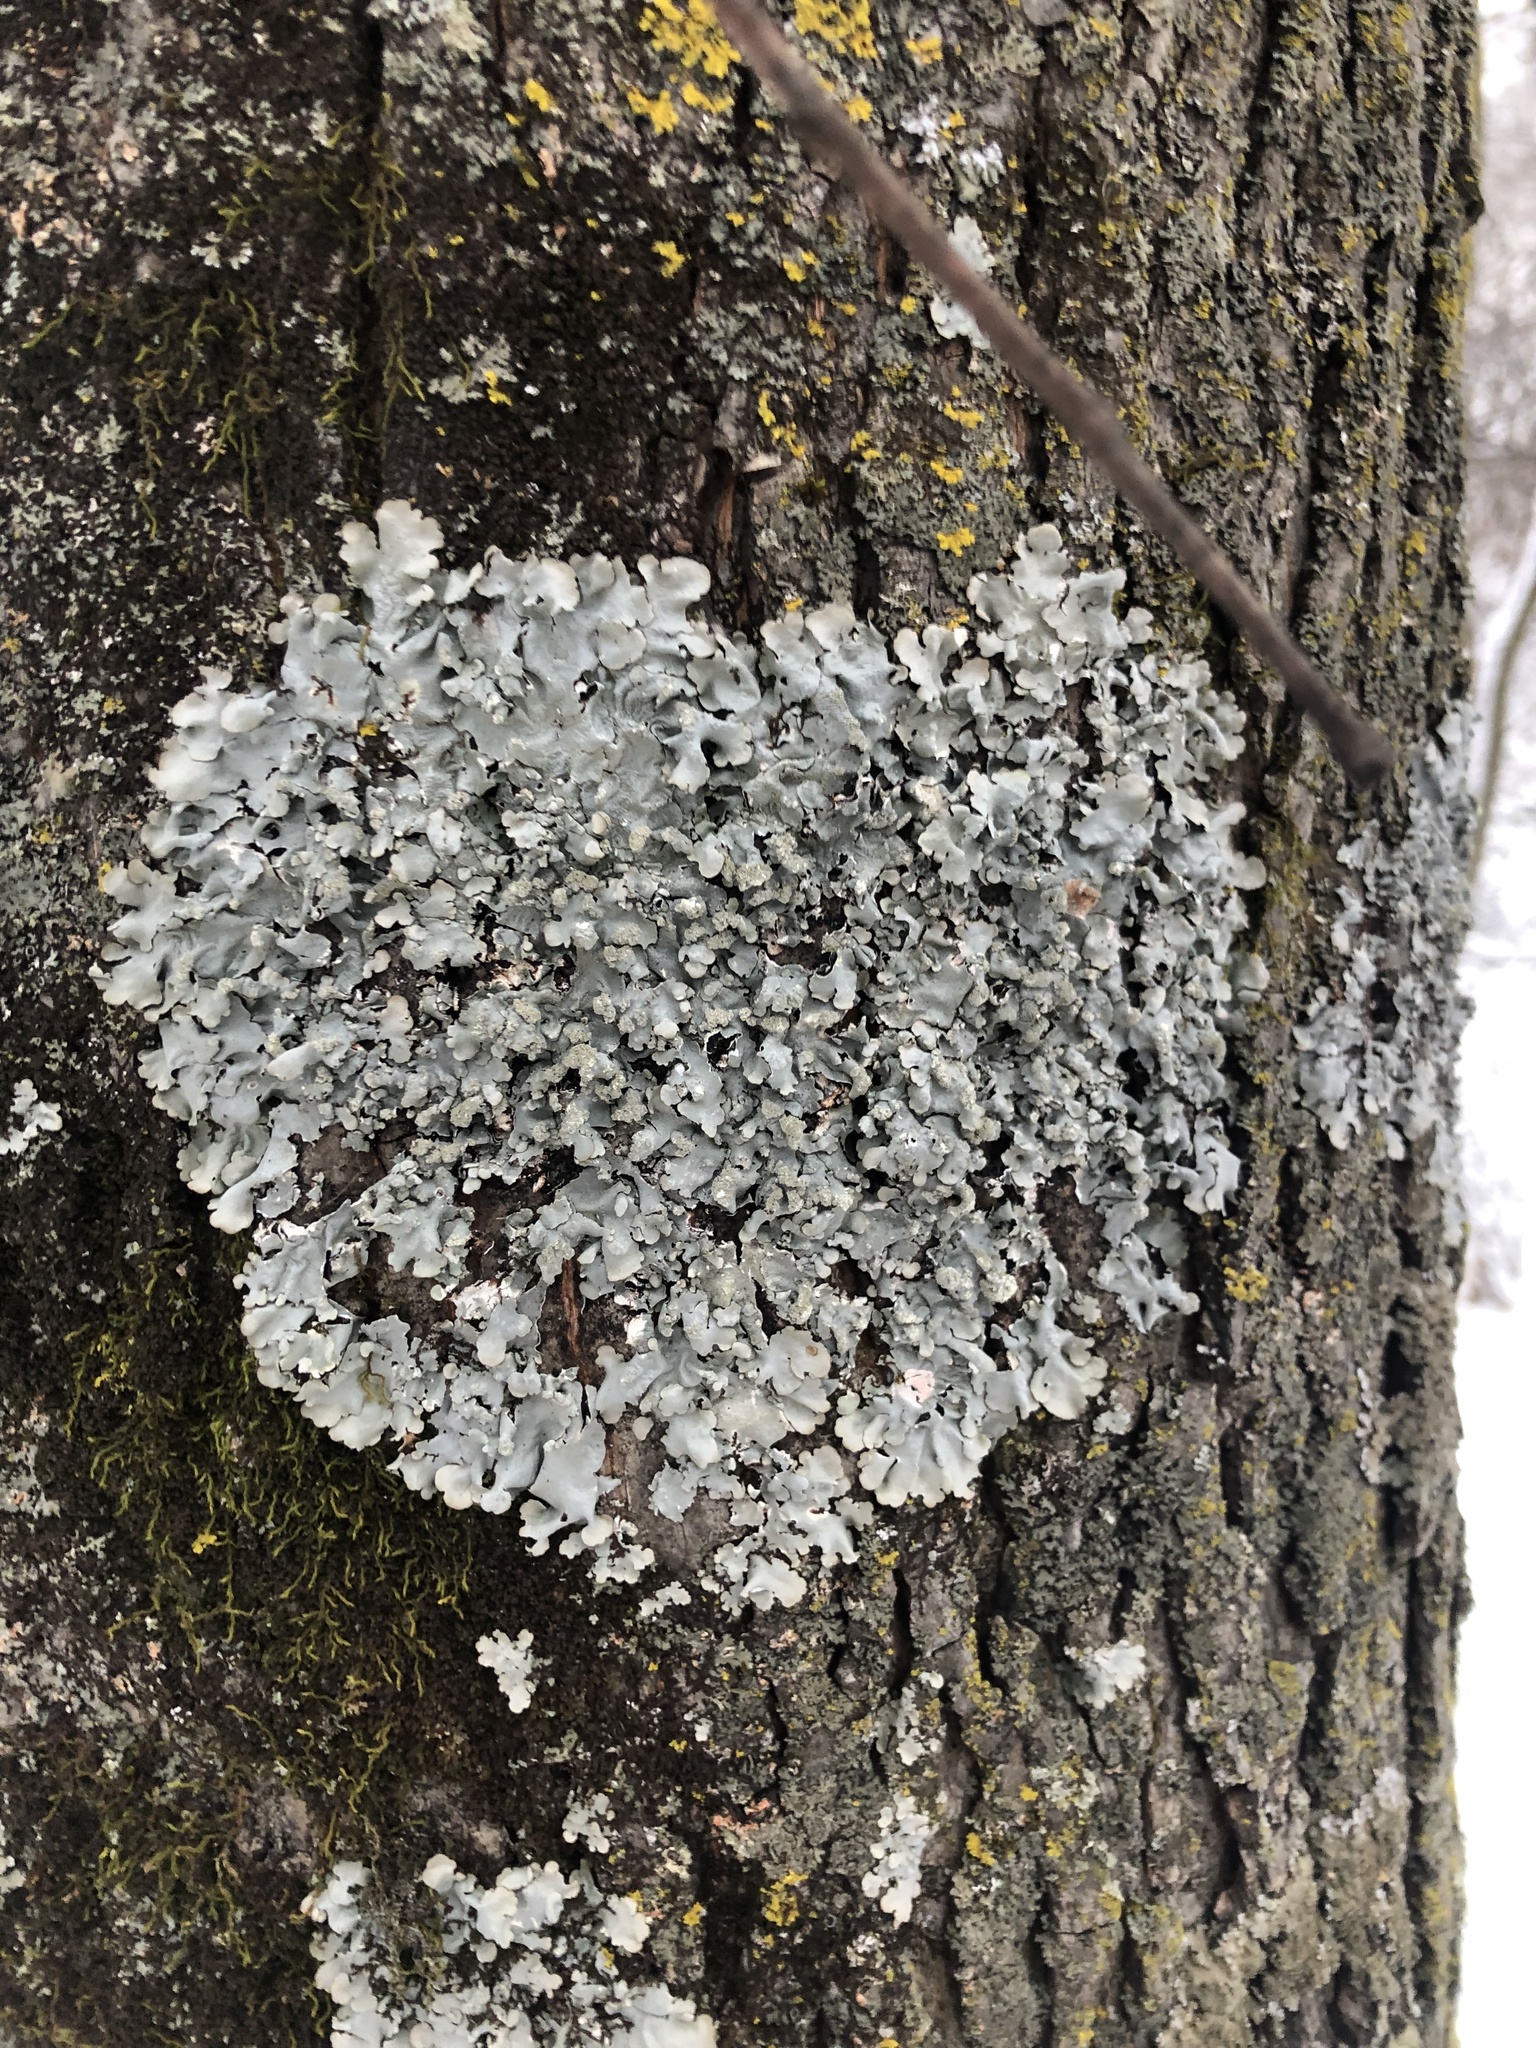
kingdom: Fungi
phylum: Ascomycota
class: Lecanoromycetes
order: Lecanorales
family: Parmeliaceae
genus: Myelochroa
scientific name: Myelochroa aurulenta
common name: Powdery axil-bristle lichen
